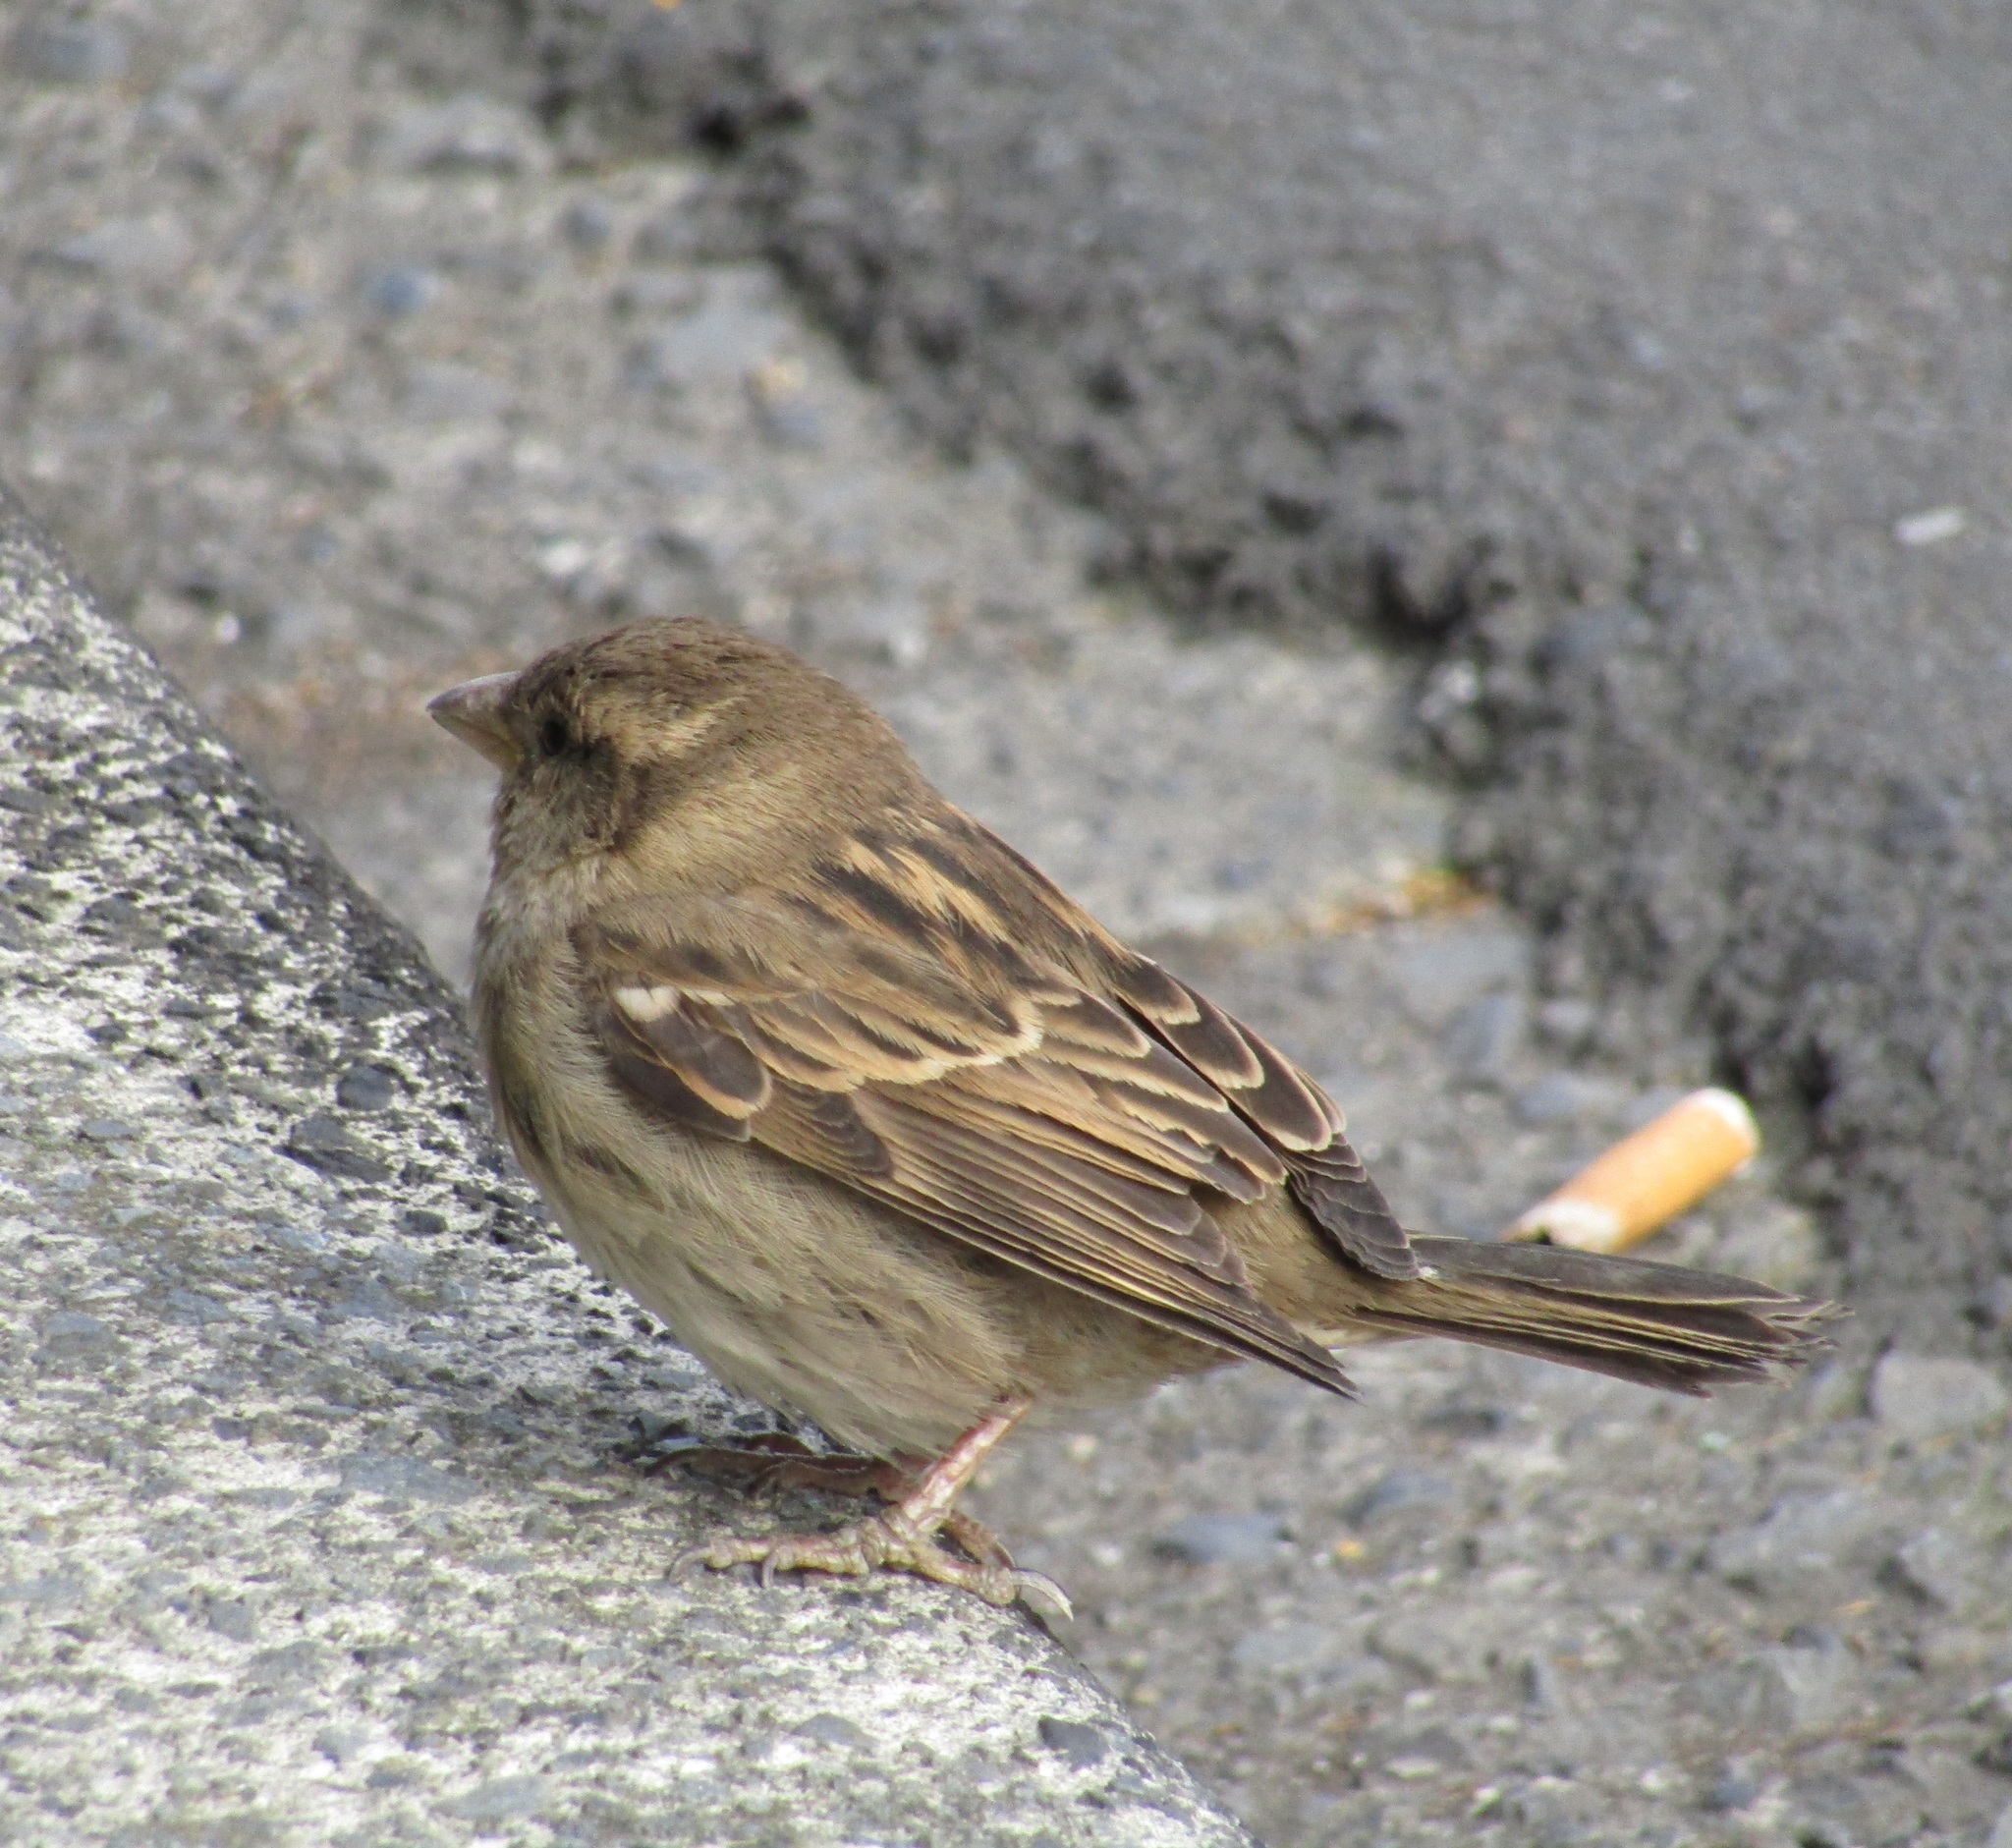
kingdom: Animalia
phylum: Chordata
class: Aves
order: Passeriformes
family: Passeridae
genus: Passer
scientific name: Passer domesticus
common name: House sparrow
